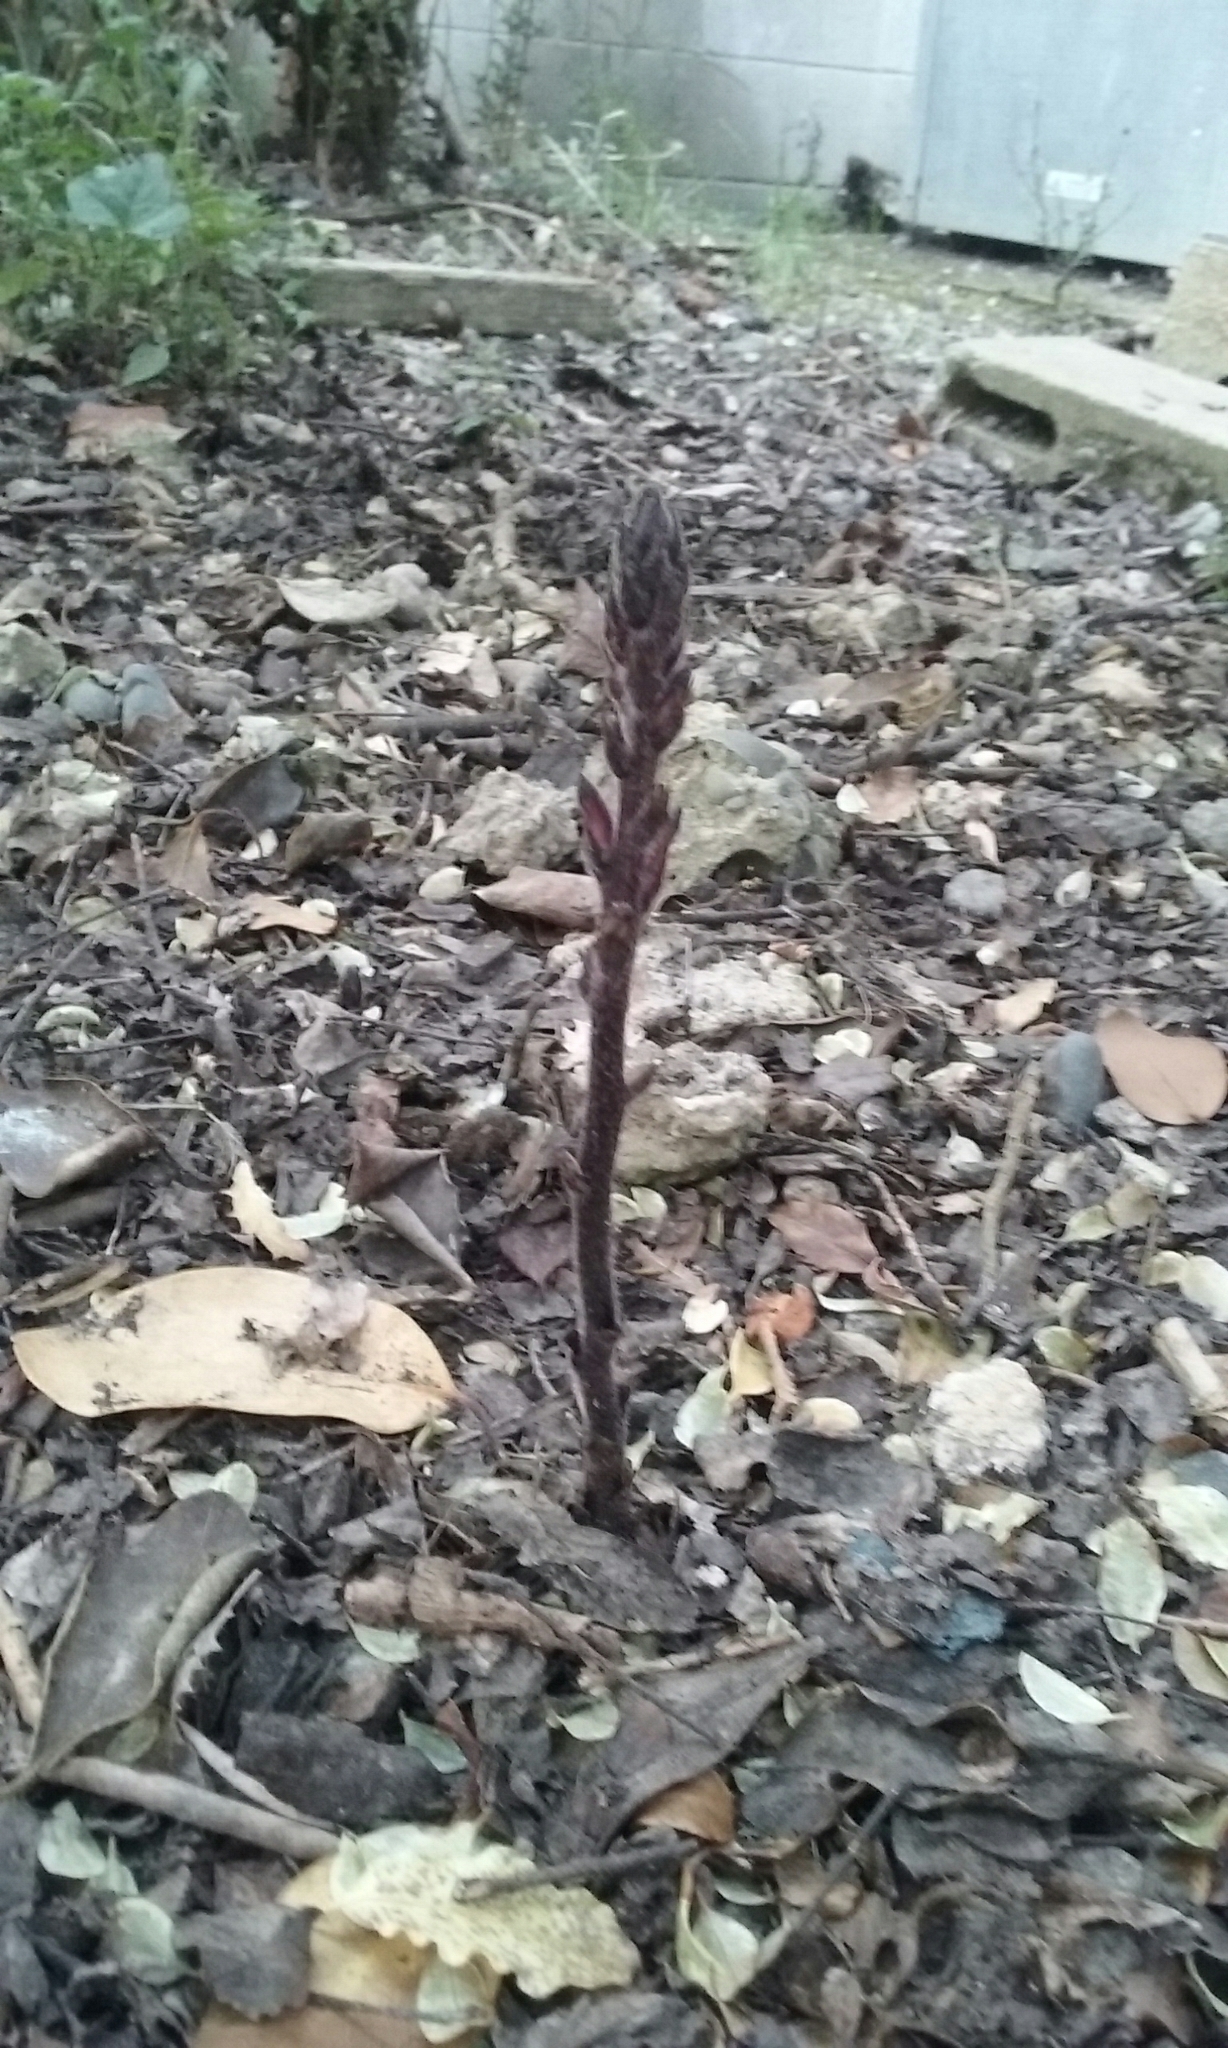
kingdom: Plantae
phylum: Tracheophyta
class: Magnoliopsida
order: Lamiales
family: Orobanchaceae
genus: Orobanche
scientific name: Orobanche minor
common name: Common broomrape
